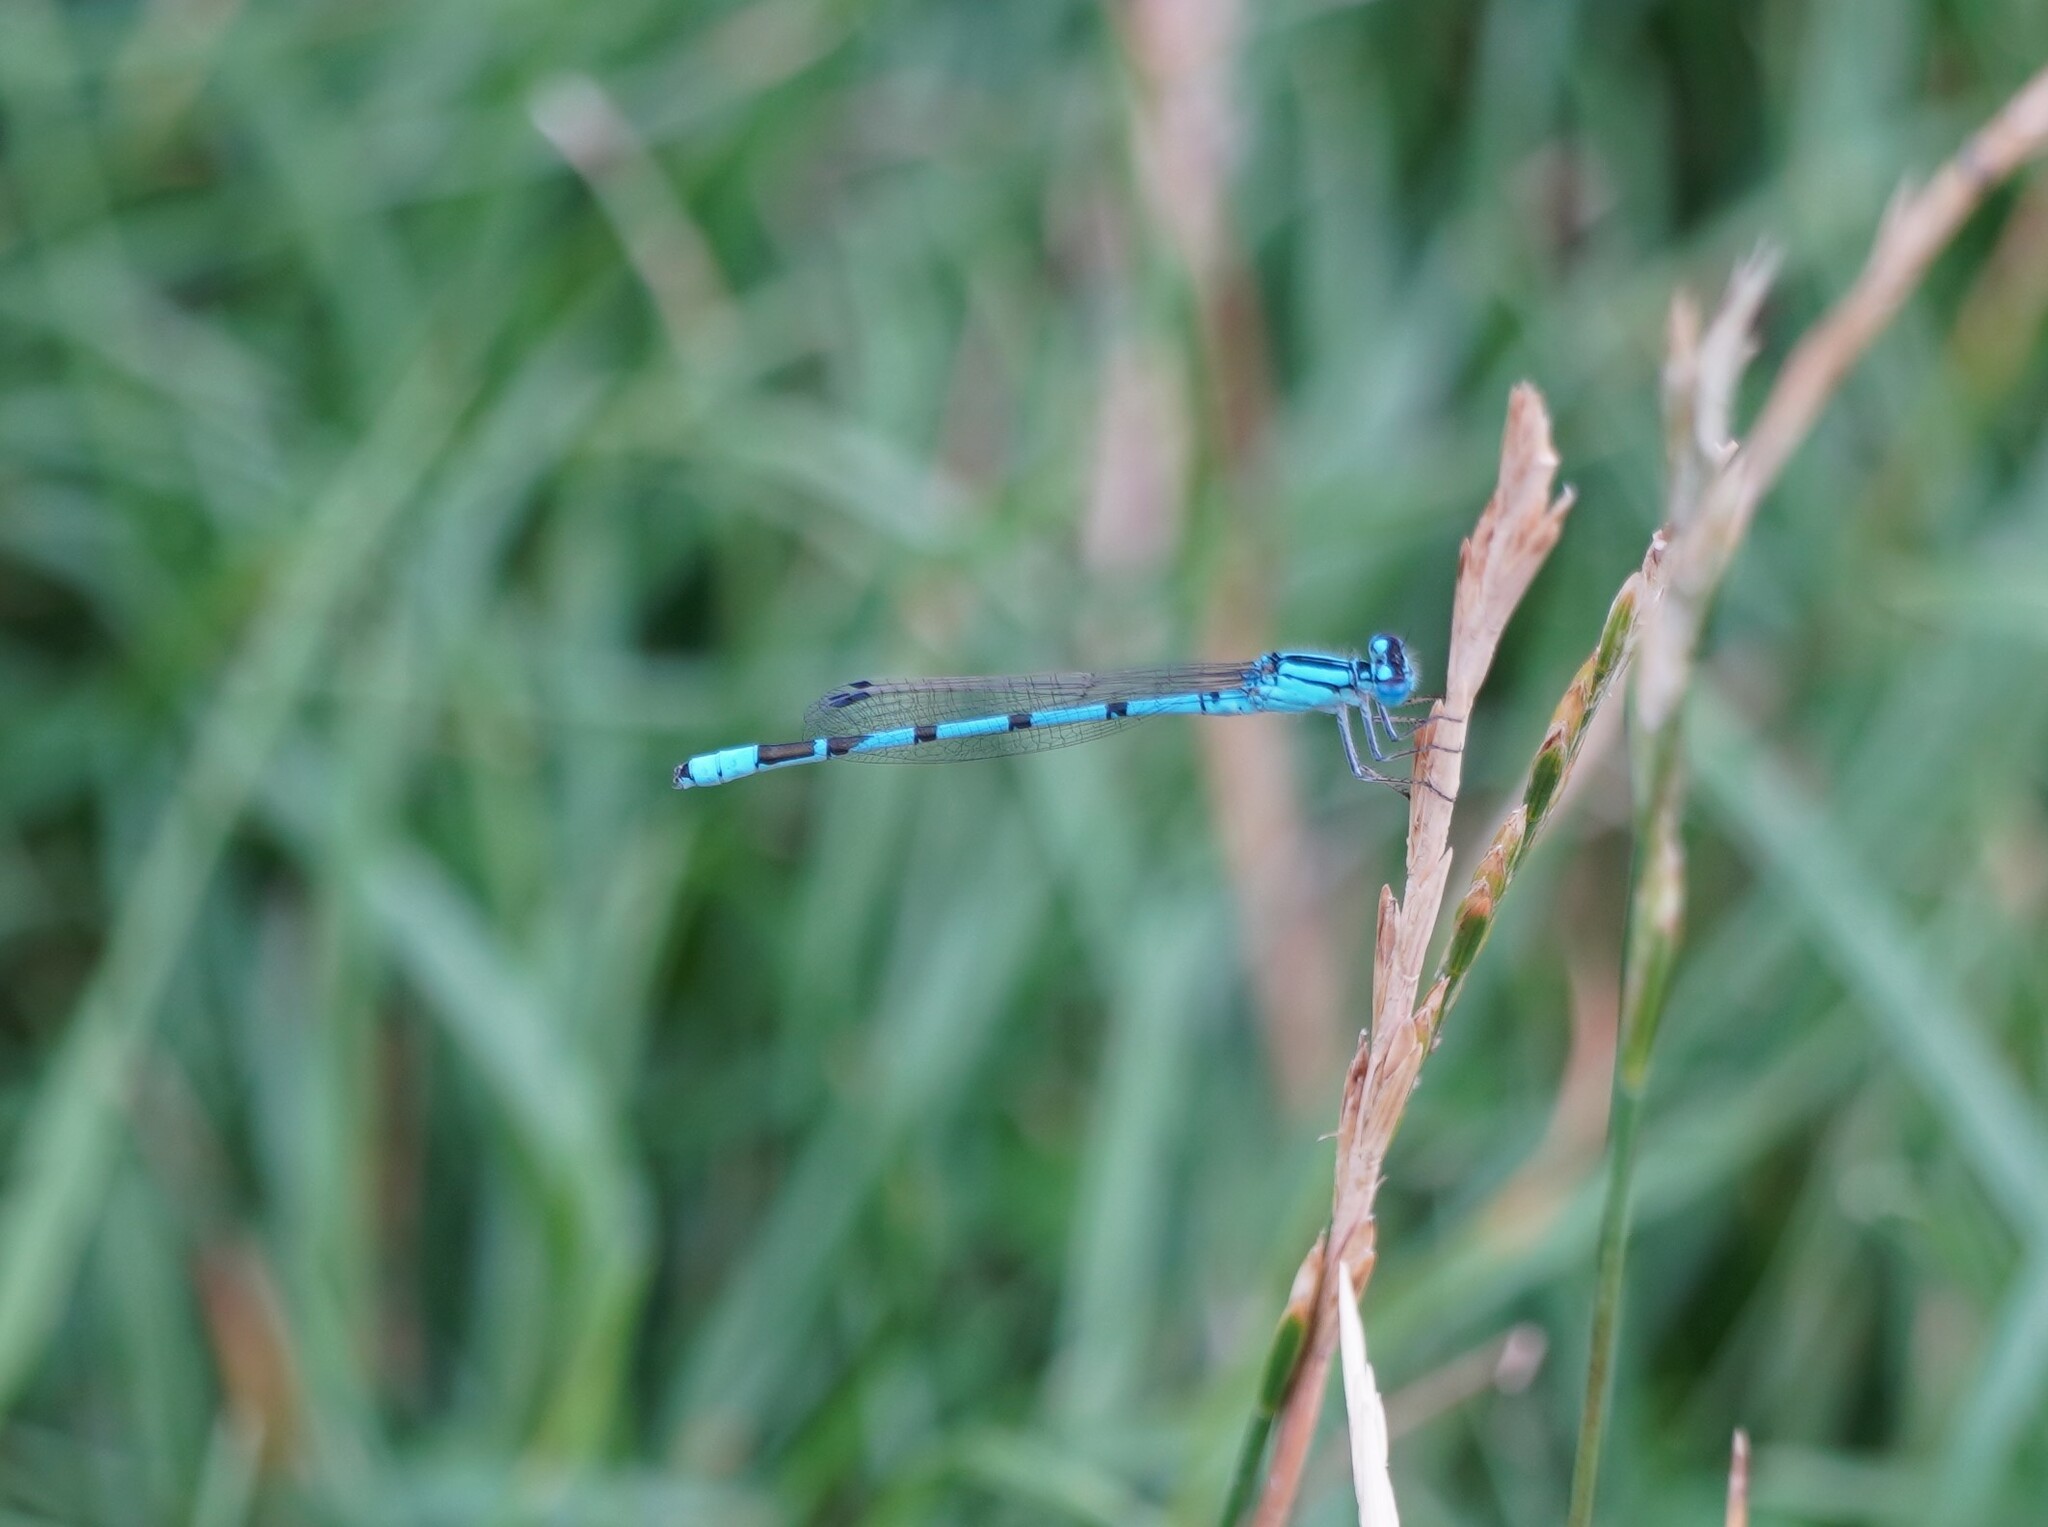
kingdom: Animalia
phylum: Arthropoda
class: Insecta
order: Odonata
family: Coenagrionidae
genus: Enallagma
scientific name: Enallagma cyathigerum
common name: Common blue damselfly
